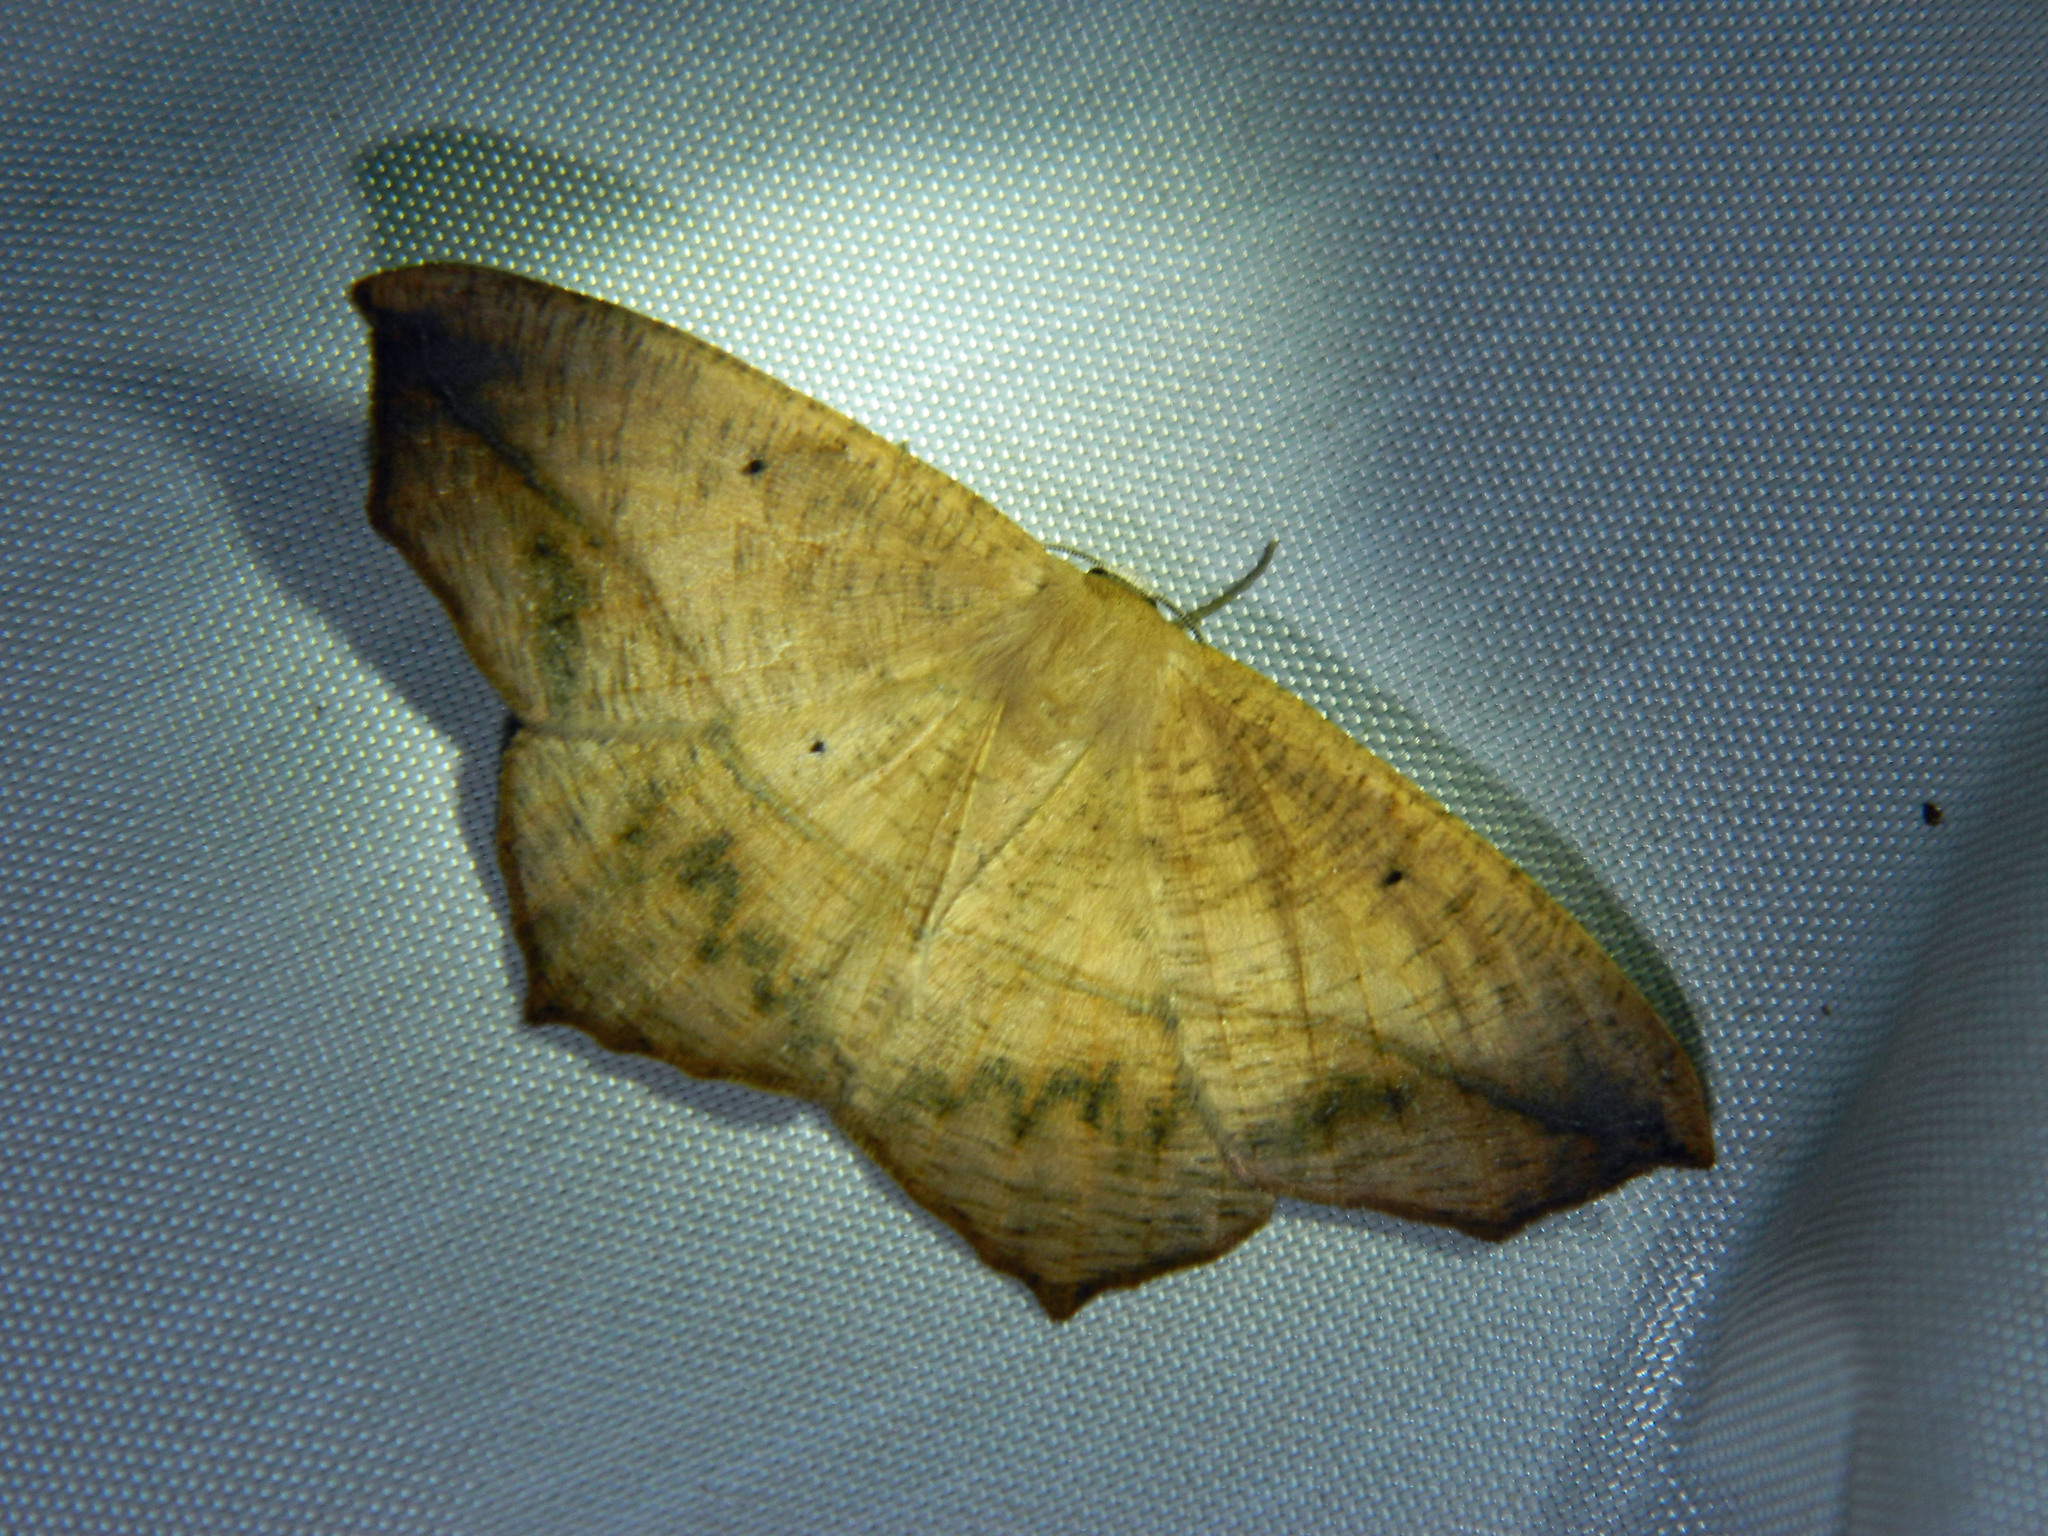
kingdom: Animalia
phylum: Arthropoda
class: Insecta
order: Lepidoptera
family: Geometridae
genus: Prochoerodes
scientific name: Prochoerodes lineola
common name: Large maple spanworm
